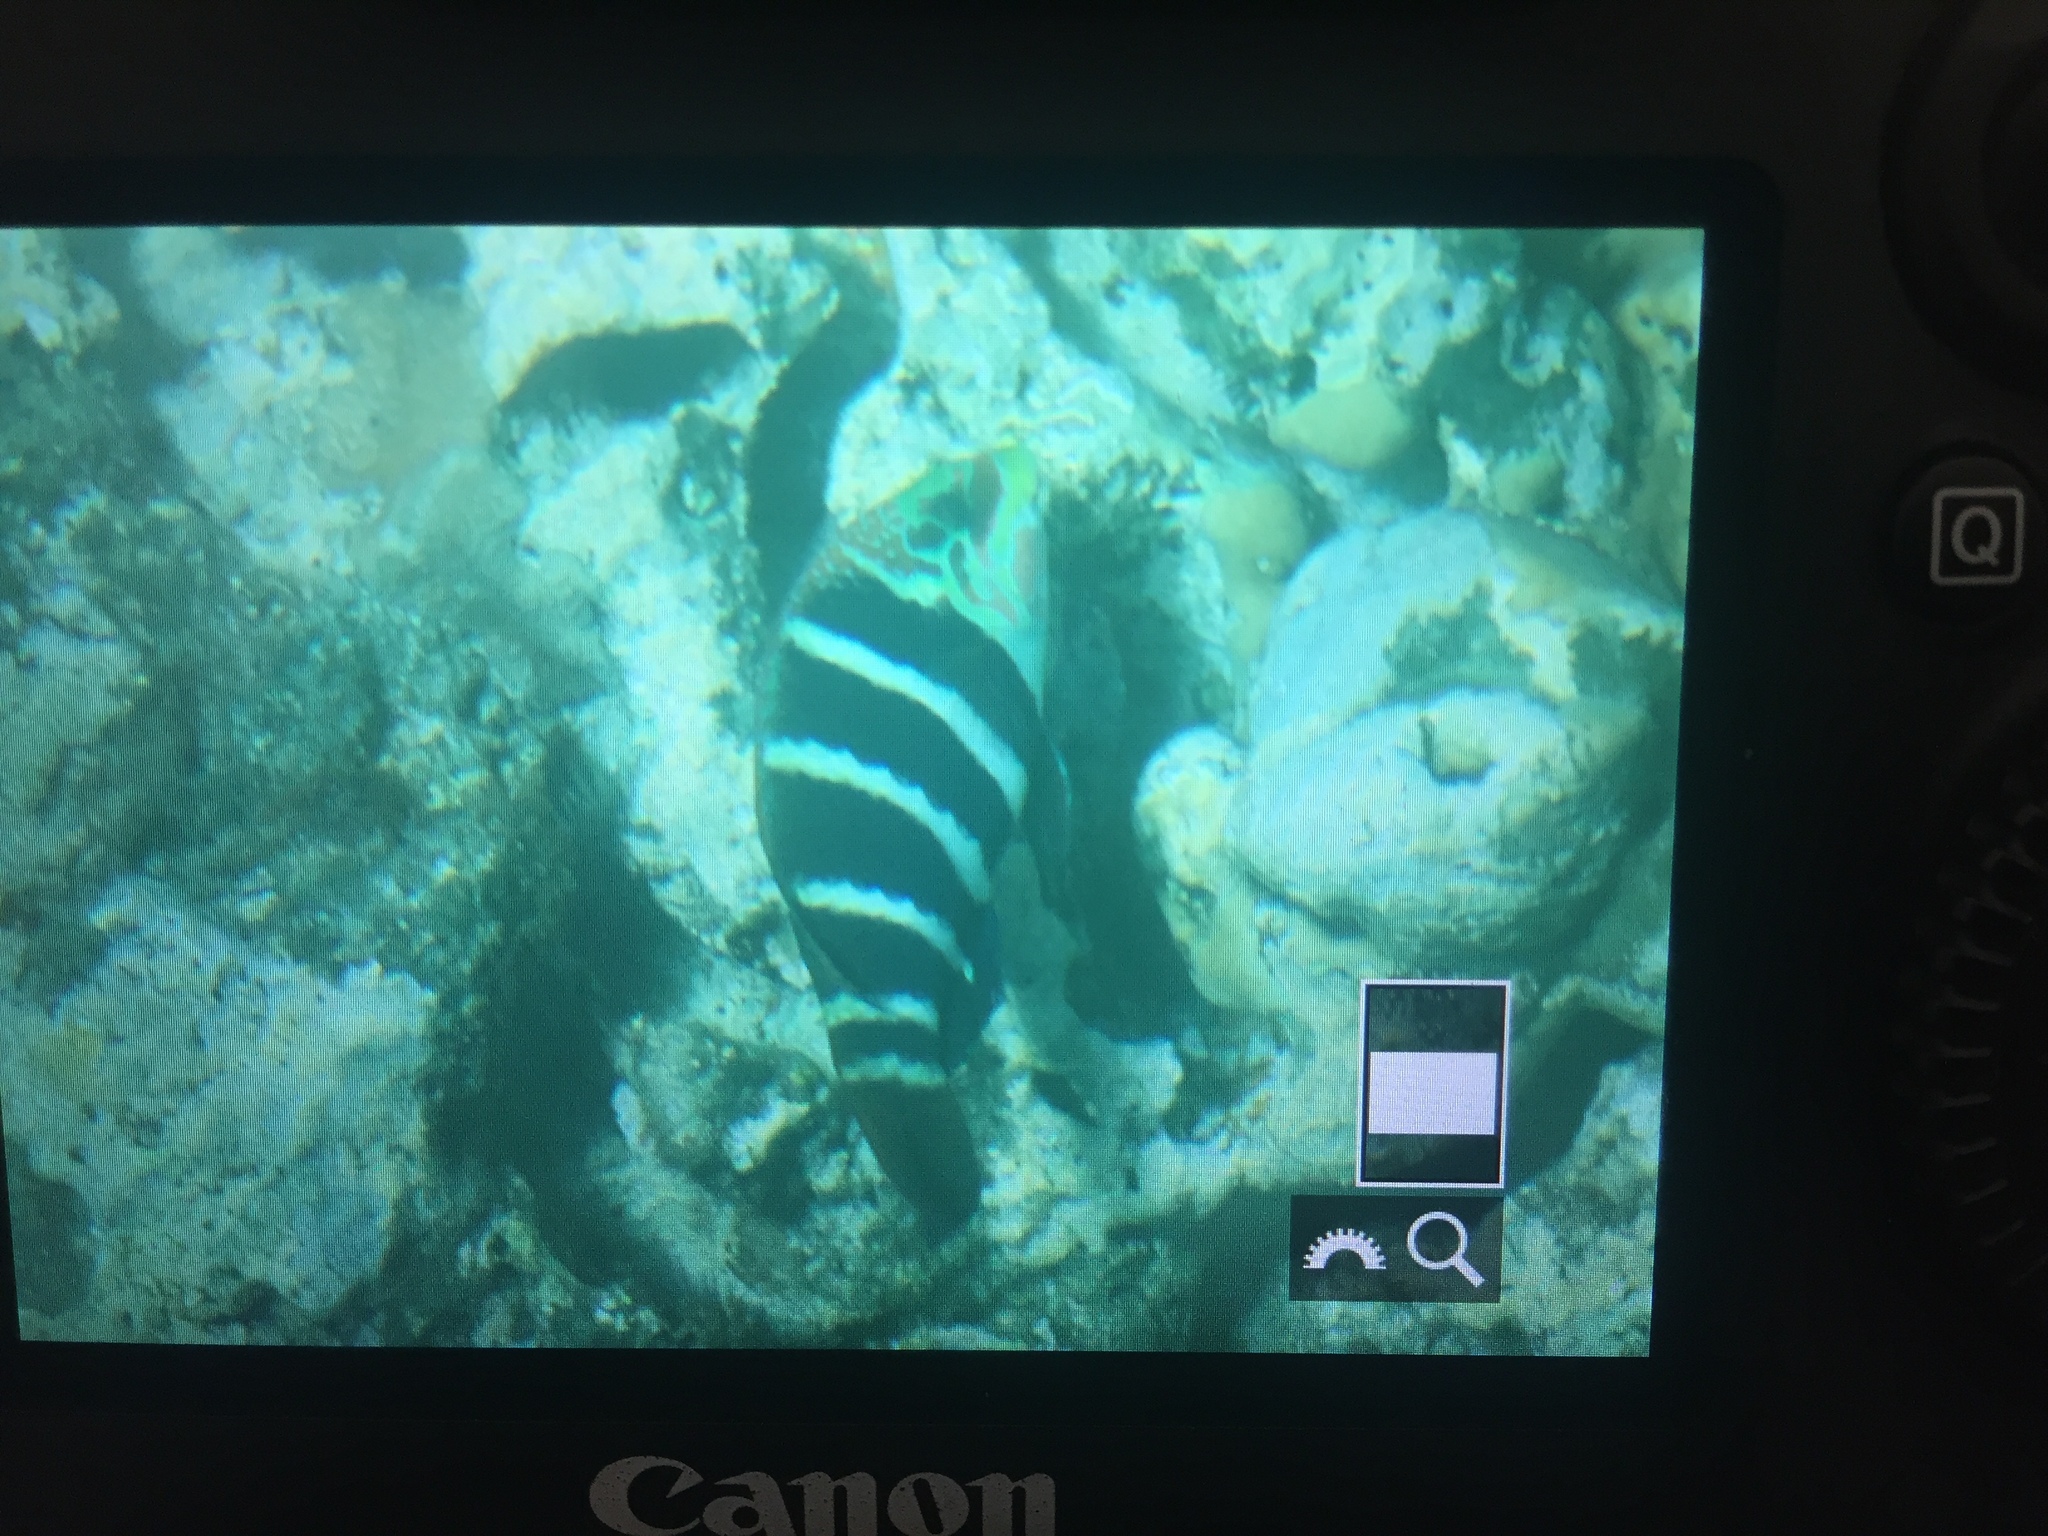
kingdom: Animalia
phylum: Chordata
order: Perciformes
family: Labridae
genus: Hemigymnus
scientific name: Hemigymnus fasciatus
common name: Barred thicklip
